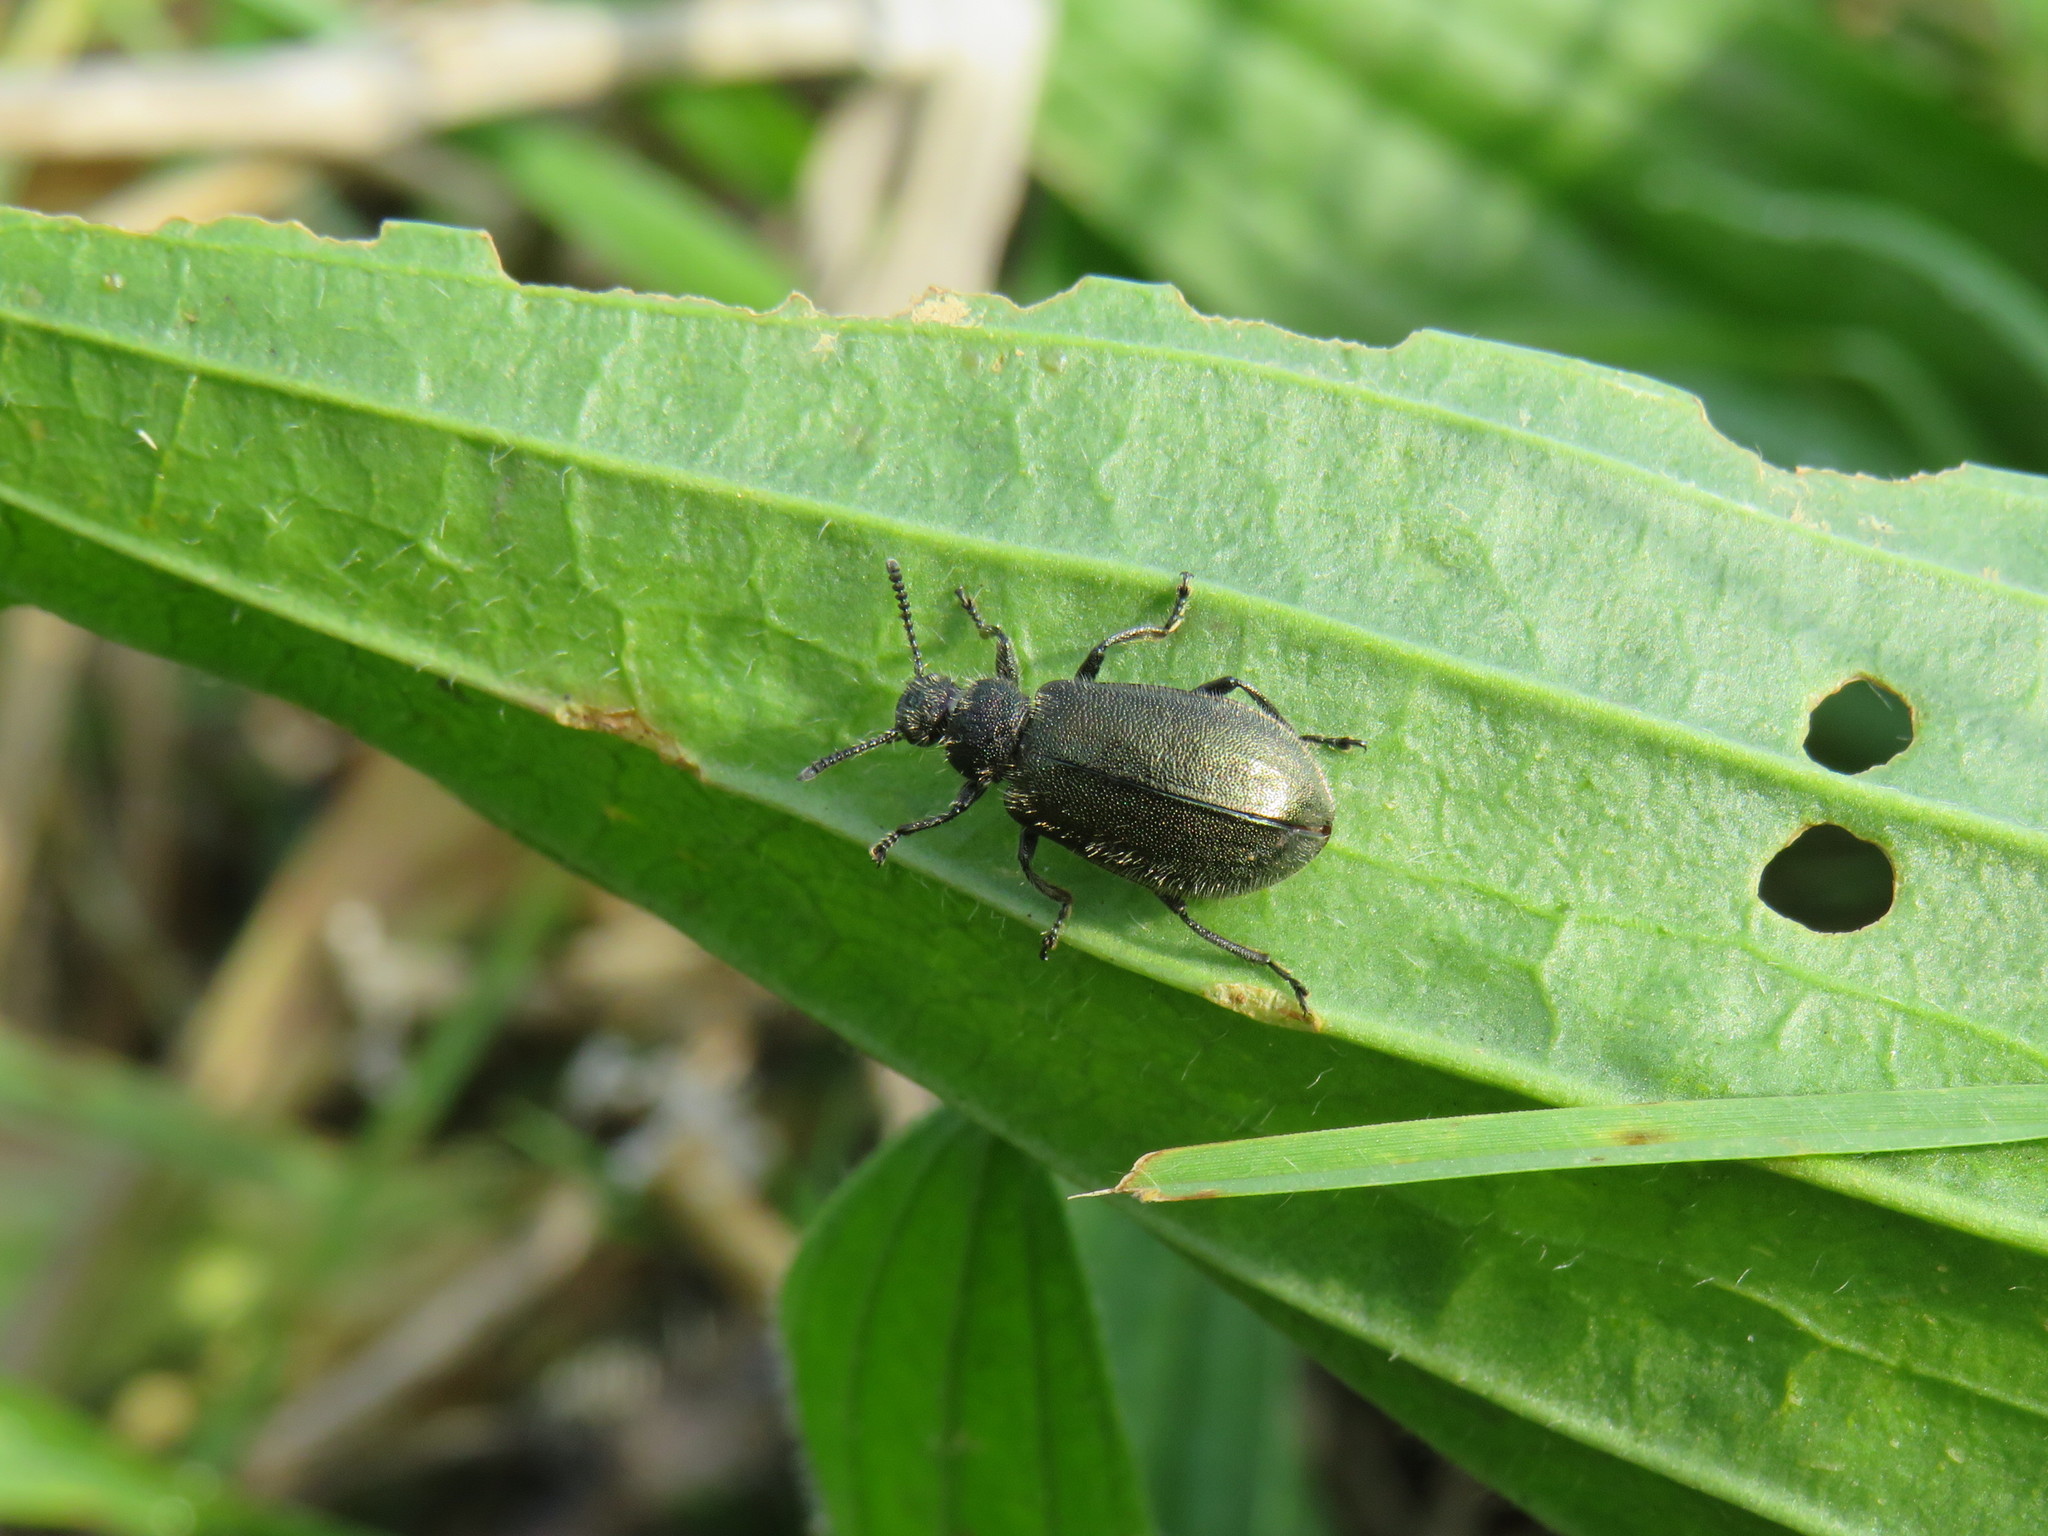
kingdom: Animalia
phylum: Arthropoda
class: Insecta
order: Coleoptera
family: Tenebrionidae
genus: Lagria
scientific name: Lagria villosa
